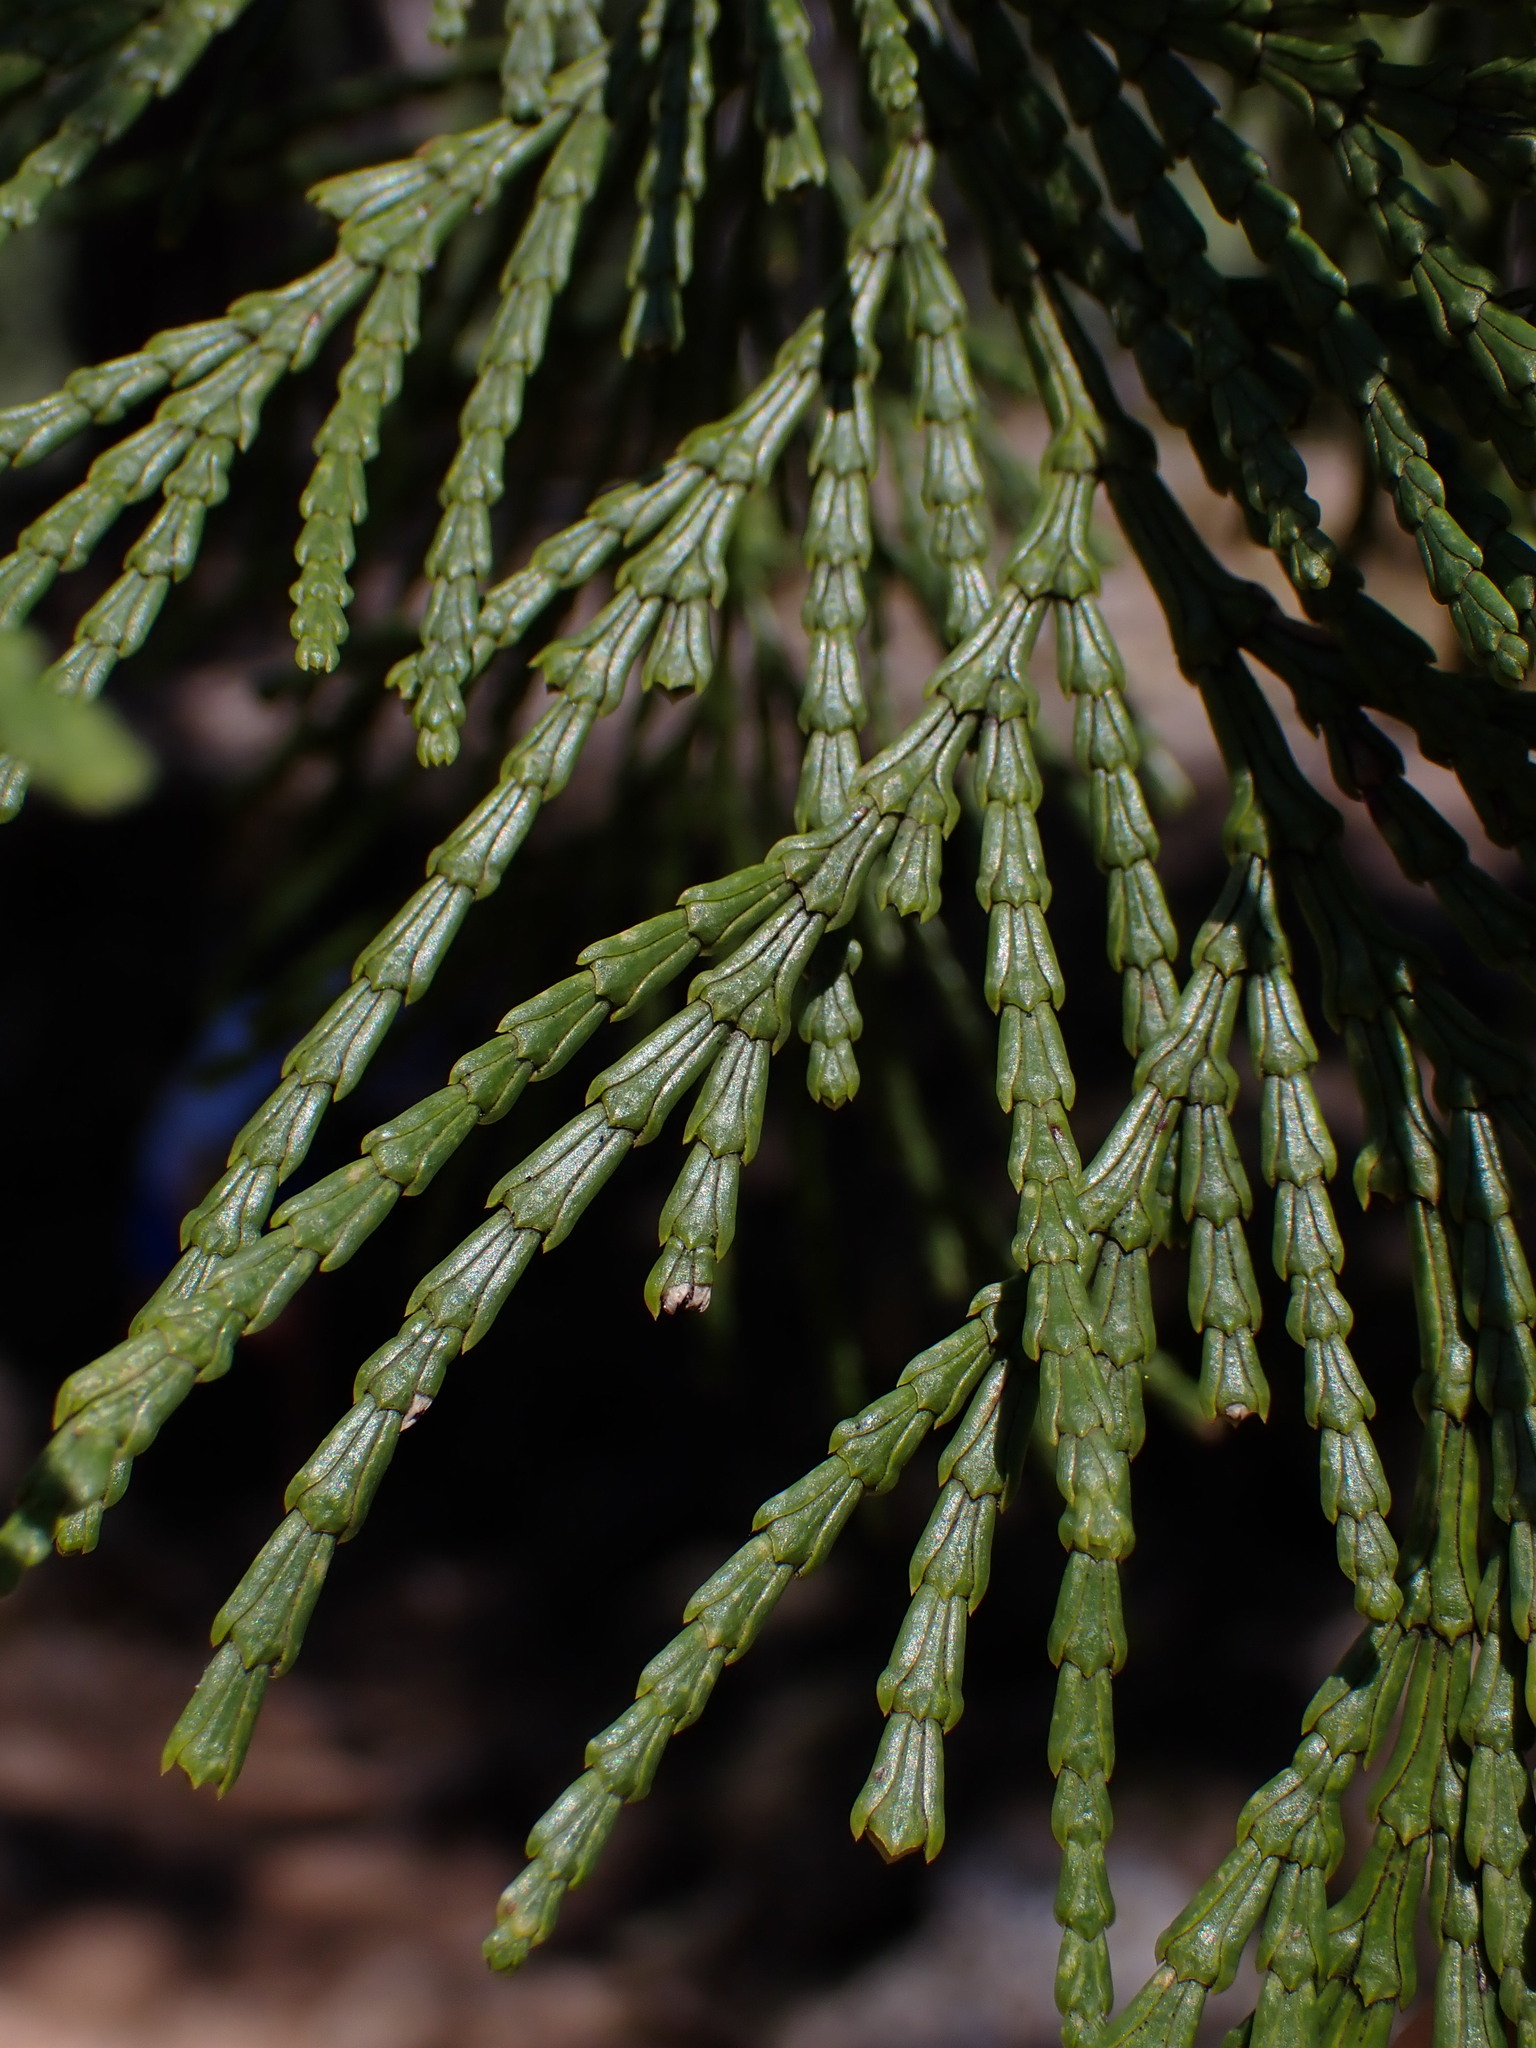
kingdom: Plantae
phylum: Tracheophyta
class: Pinopsida
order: Pinales
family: Cupressaceae
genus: Calocedrus
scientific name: Calocedrus decurrens
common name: Californian incense-cedar
